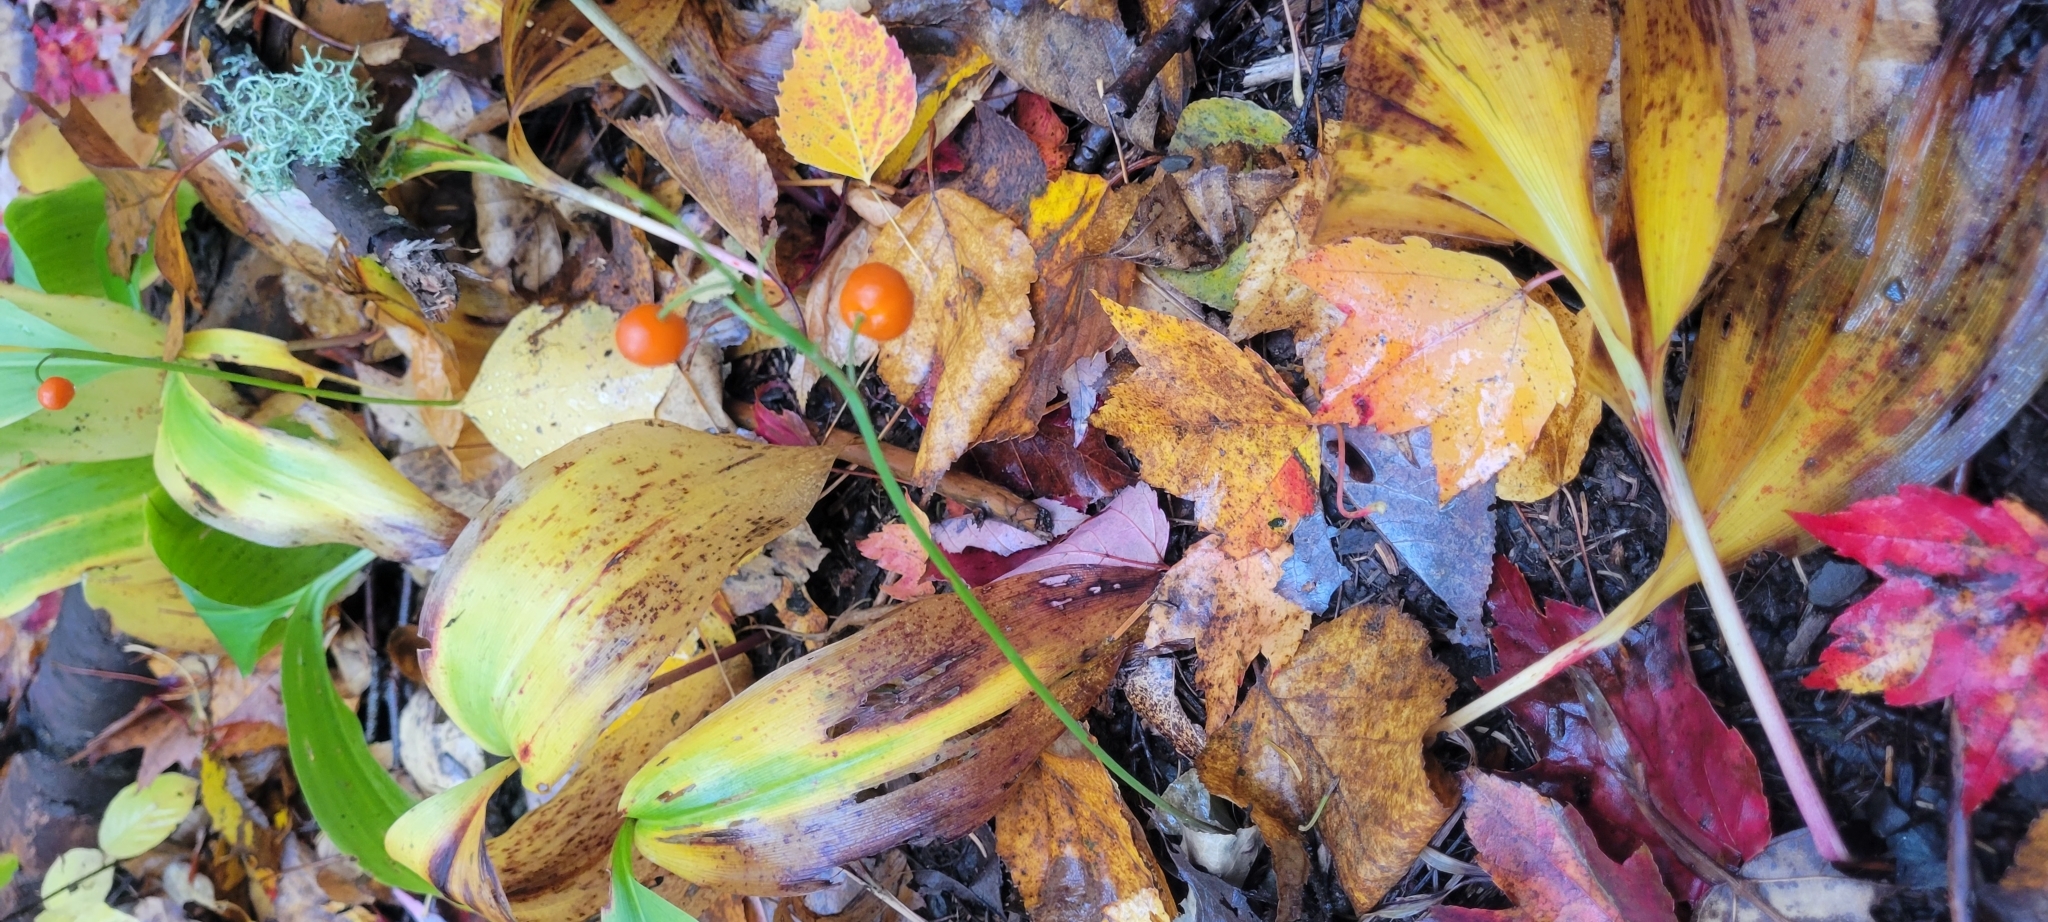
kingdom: Plantae
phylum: Tracheophyta
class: Liliopsida
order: Asparagales
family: Asparagaceae
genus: Convallaria
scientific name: Convallaria majalis
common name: Lily-of-the-valley
